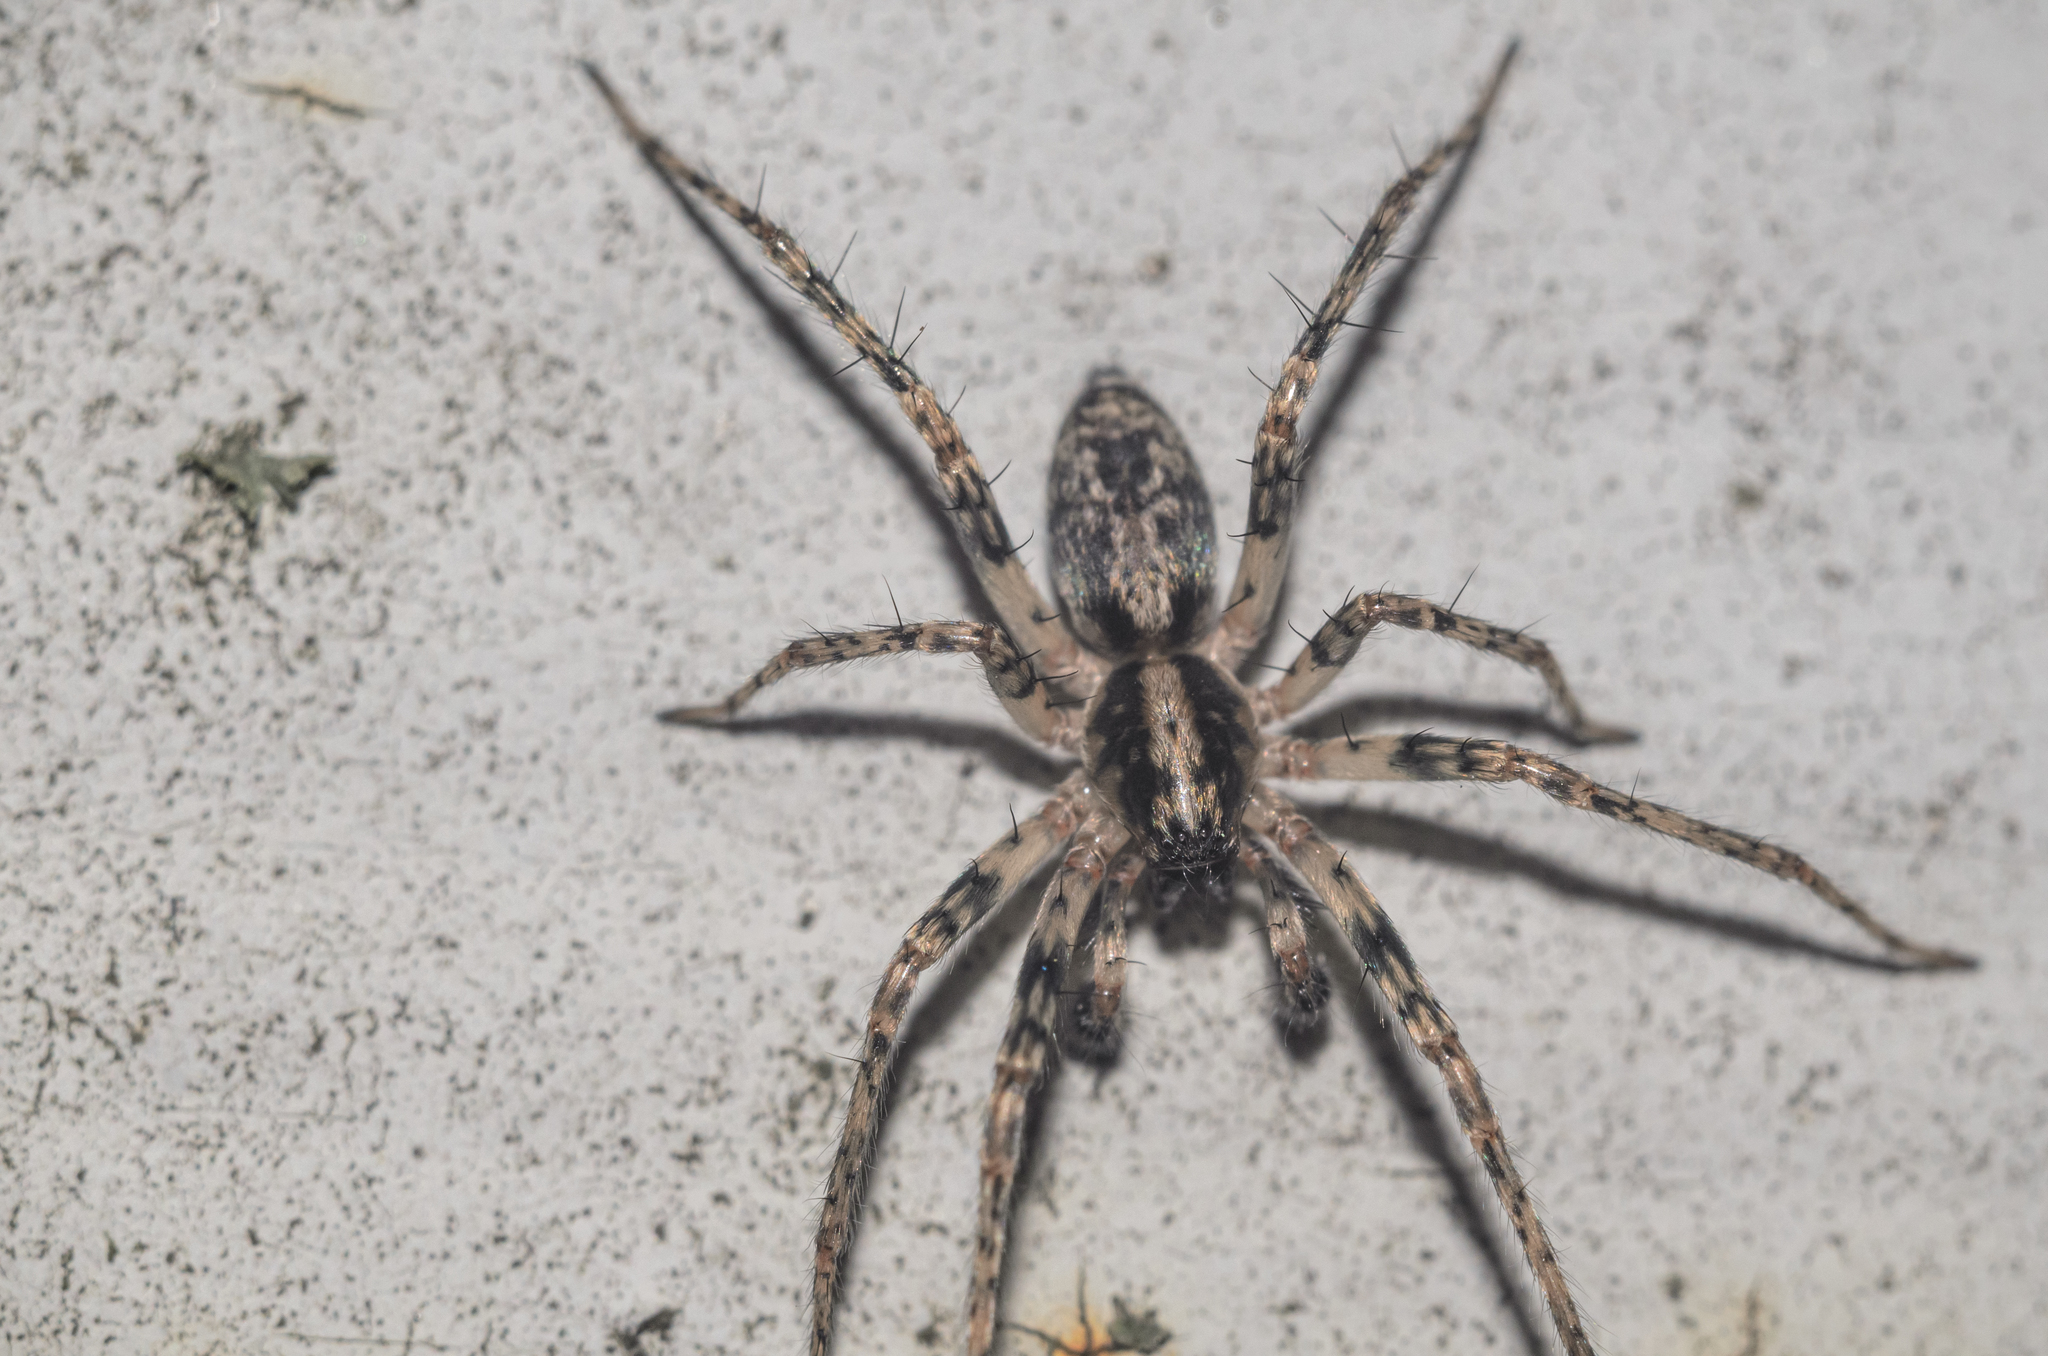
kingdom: Animalia
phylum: Arthropoda
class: Arachnida
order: Araneae
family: Anyphaenidae
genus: Anyphaena
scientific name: Anyphaena accentuata
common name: Buzzing spider
